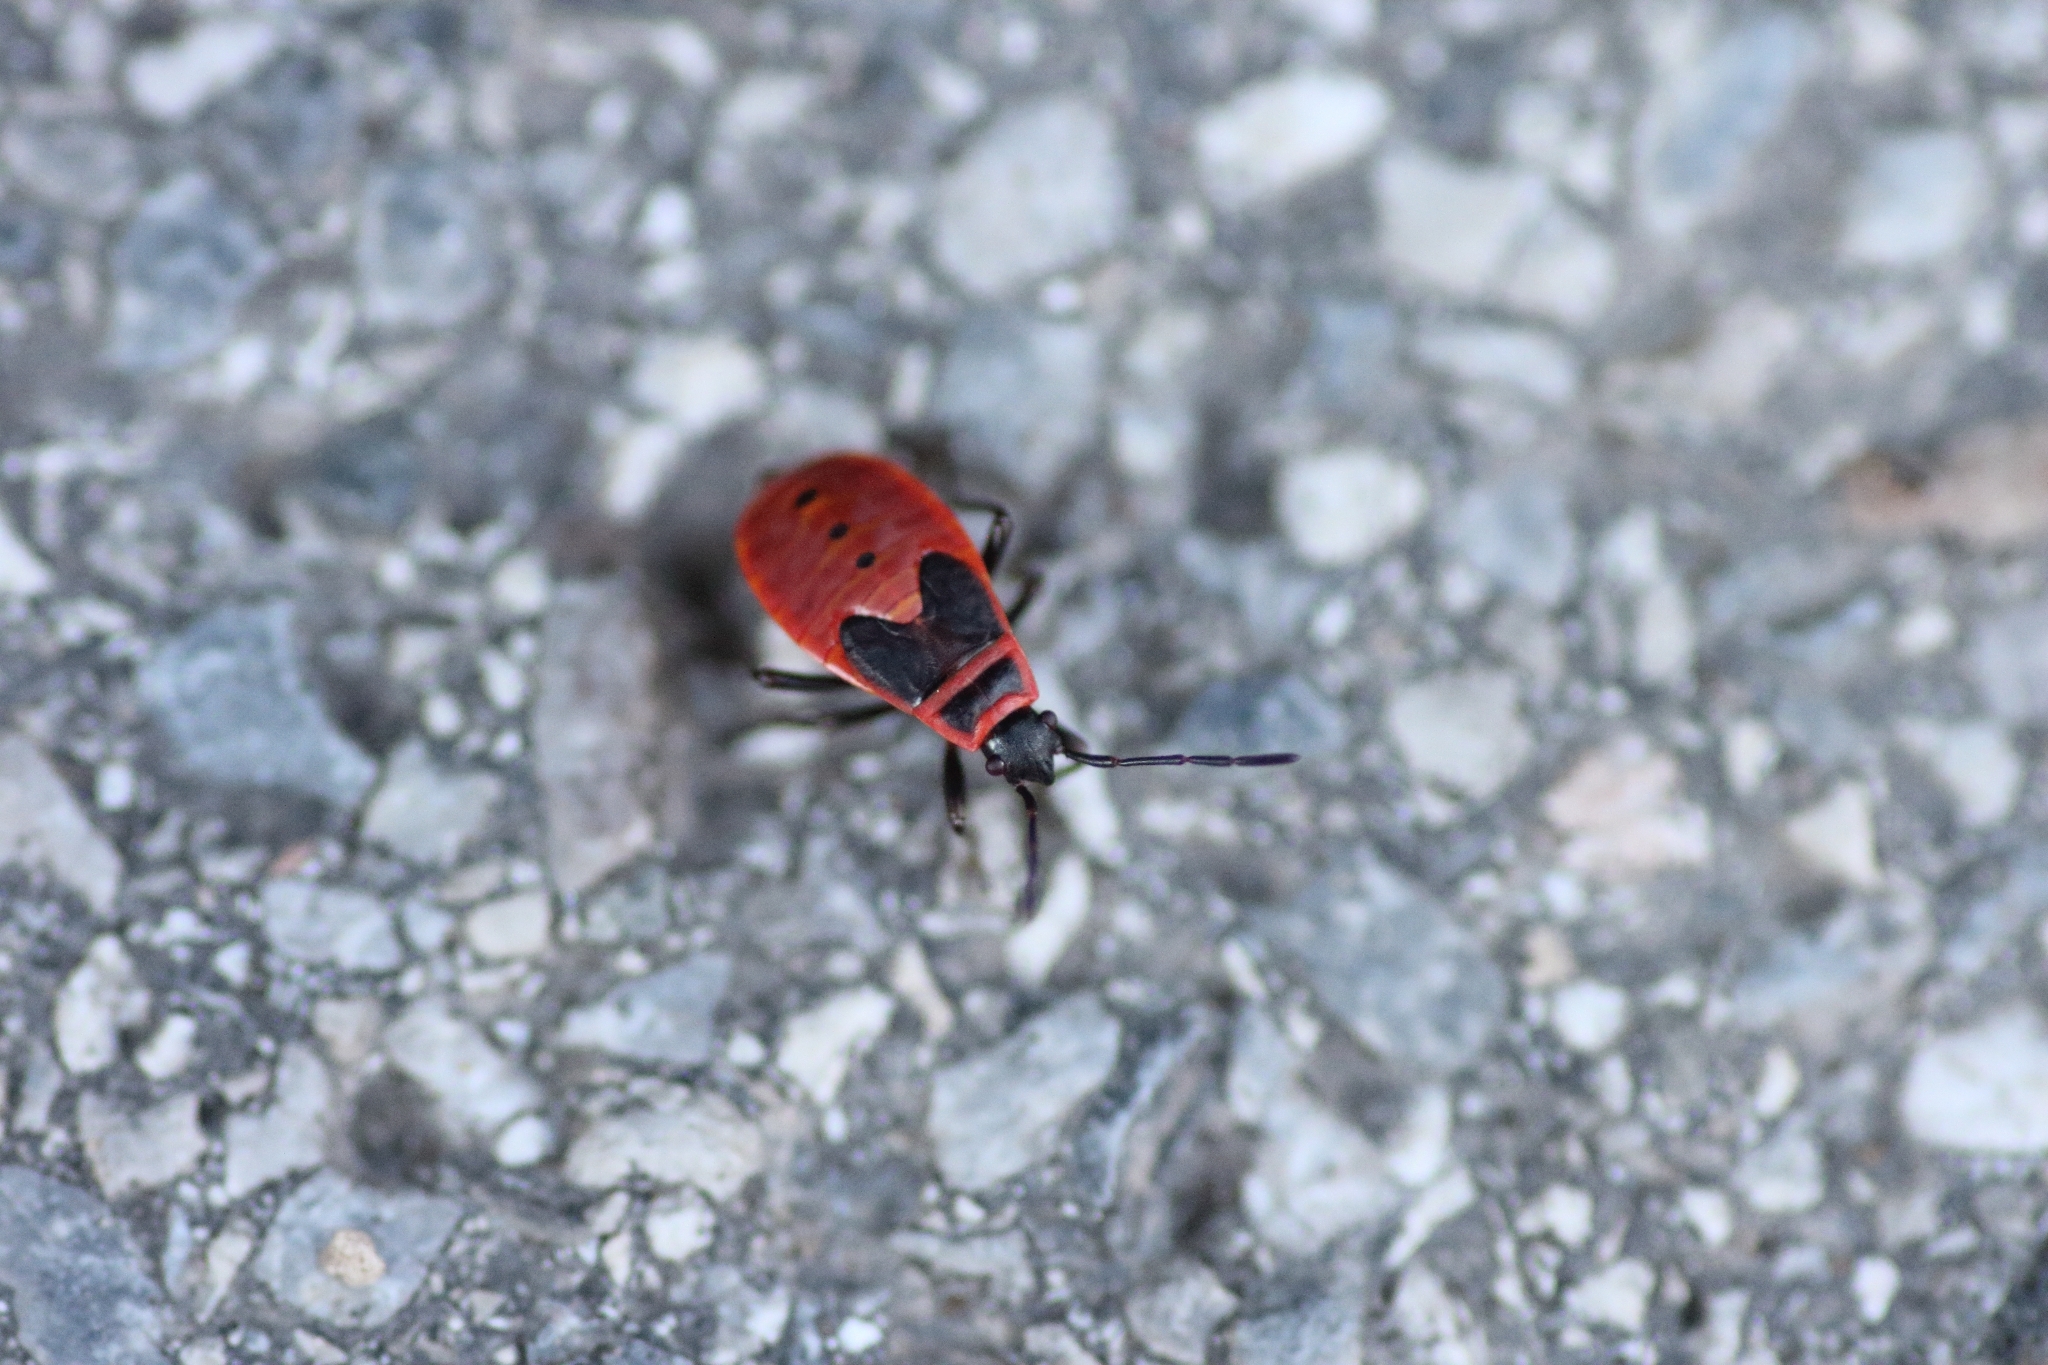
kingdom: Animalia
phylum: Arthropoda
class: Insecta
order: Hemiptera
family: Pyrrhocoridae
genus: Pyrrhocoris
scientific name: Pyrrhocoris apterus
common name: Firebug
